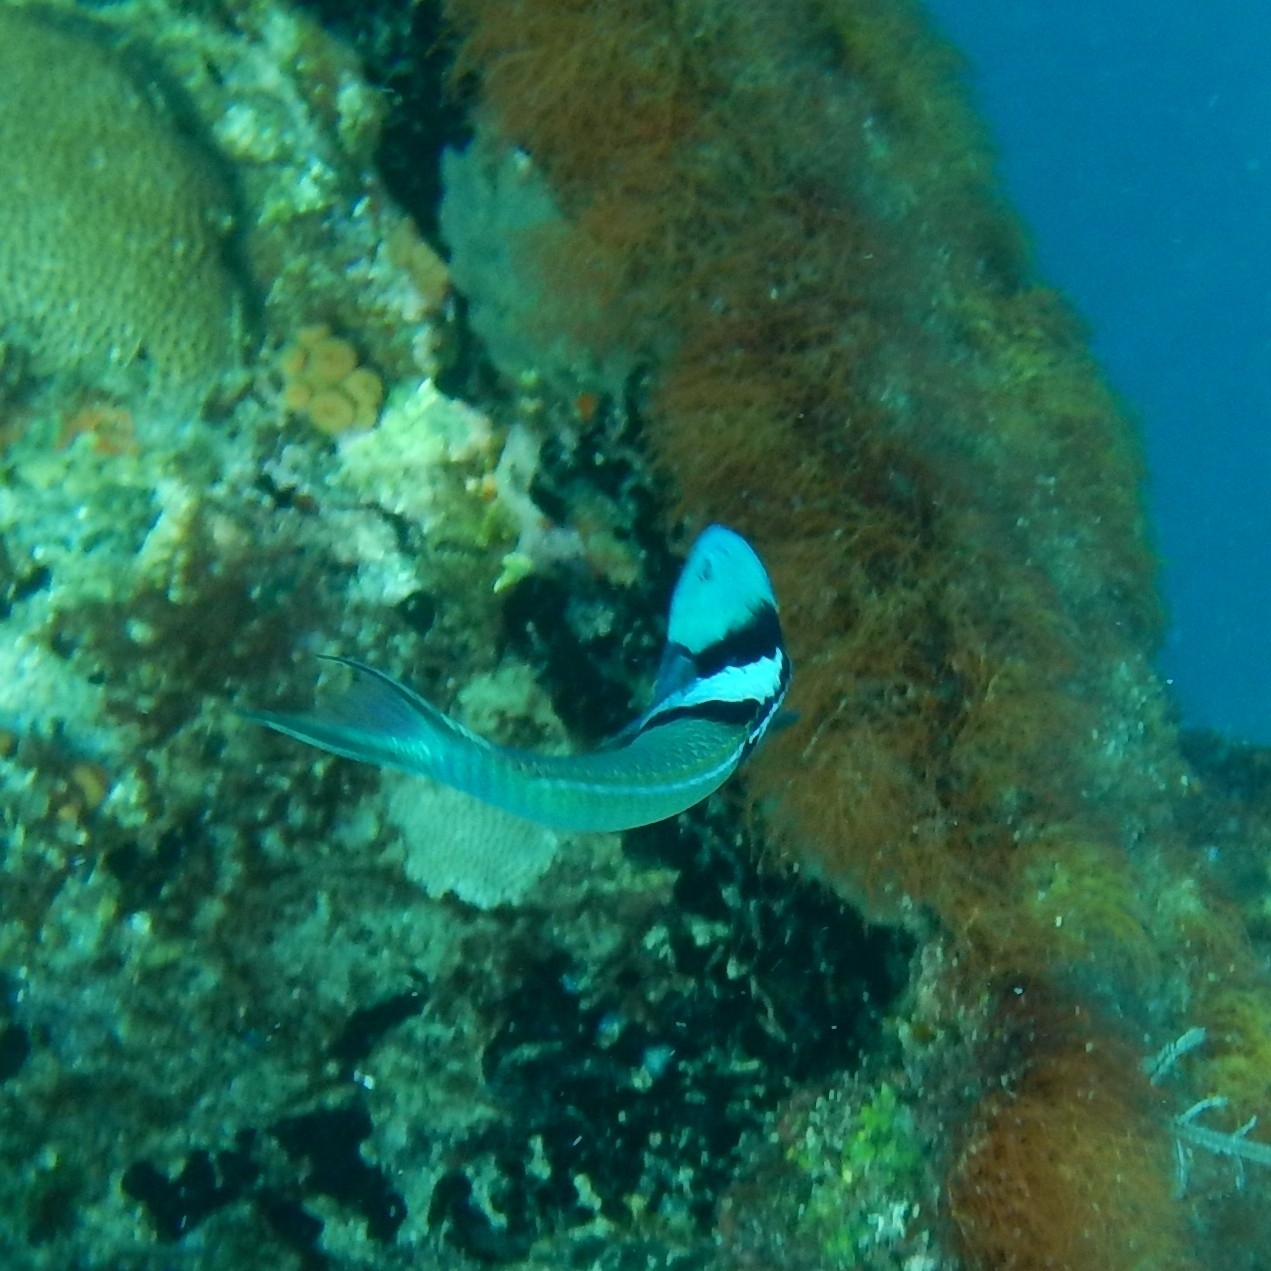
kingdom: Animalia
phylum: Chordata
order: Perciformes
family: Labridae
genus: Thalassoma
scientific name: Thalassoma bifasciatum
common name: Bluehead wrasse
